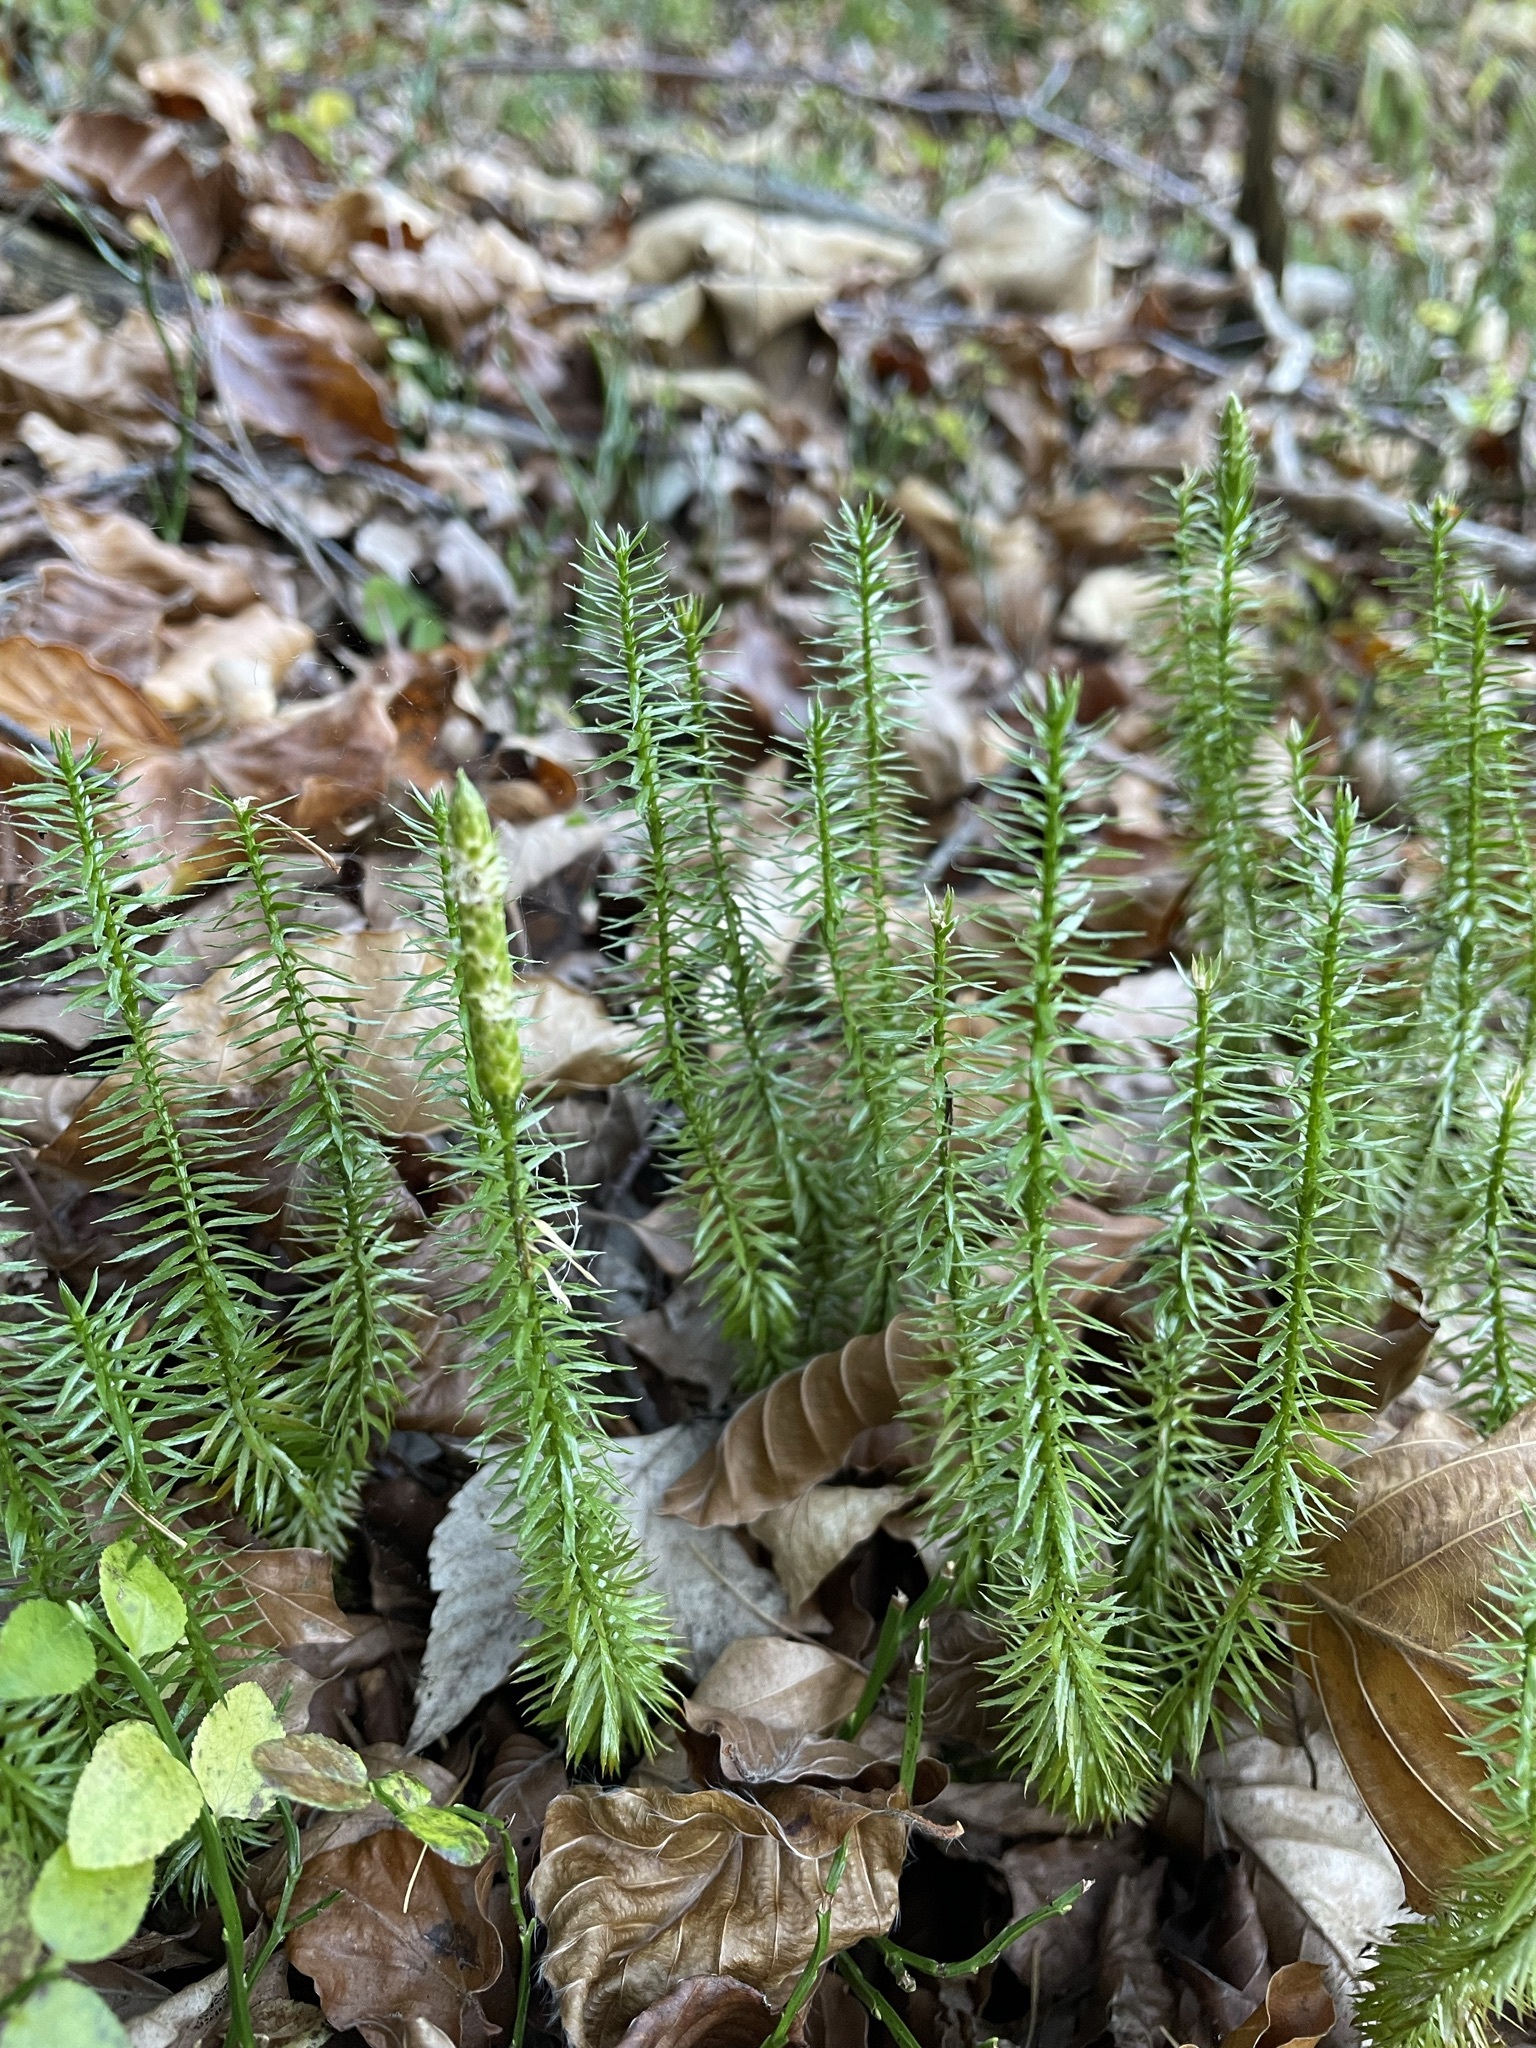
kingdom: Plantae
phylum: Tracheophyta
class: Lycopodiopsida
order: Lycopodiales
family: Lycopodiaceae
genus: Spinulum
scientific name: Spinulum annotinum
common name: Interrupted club-moss
